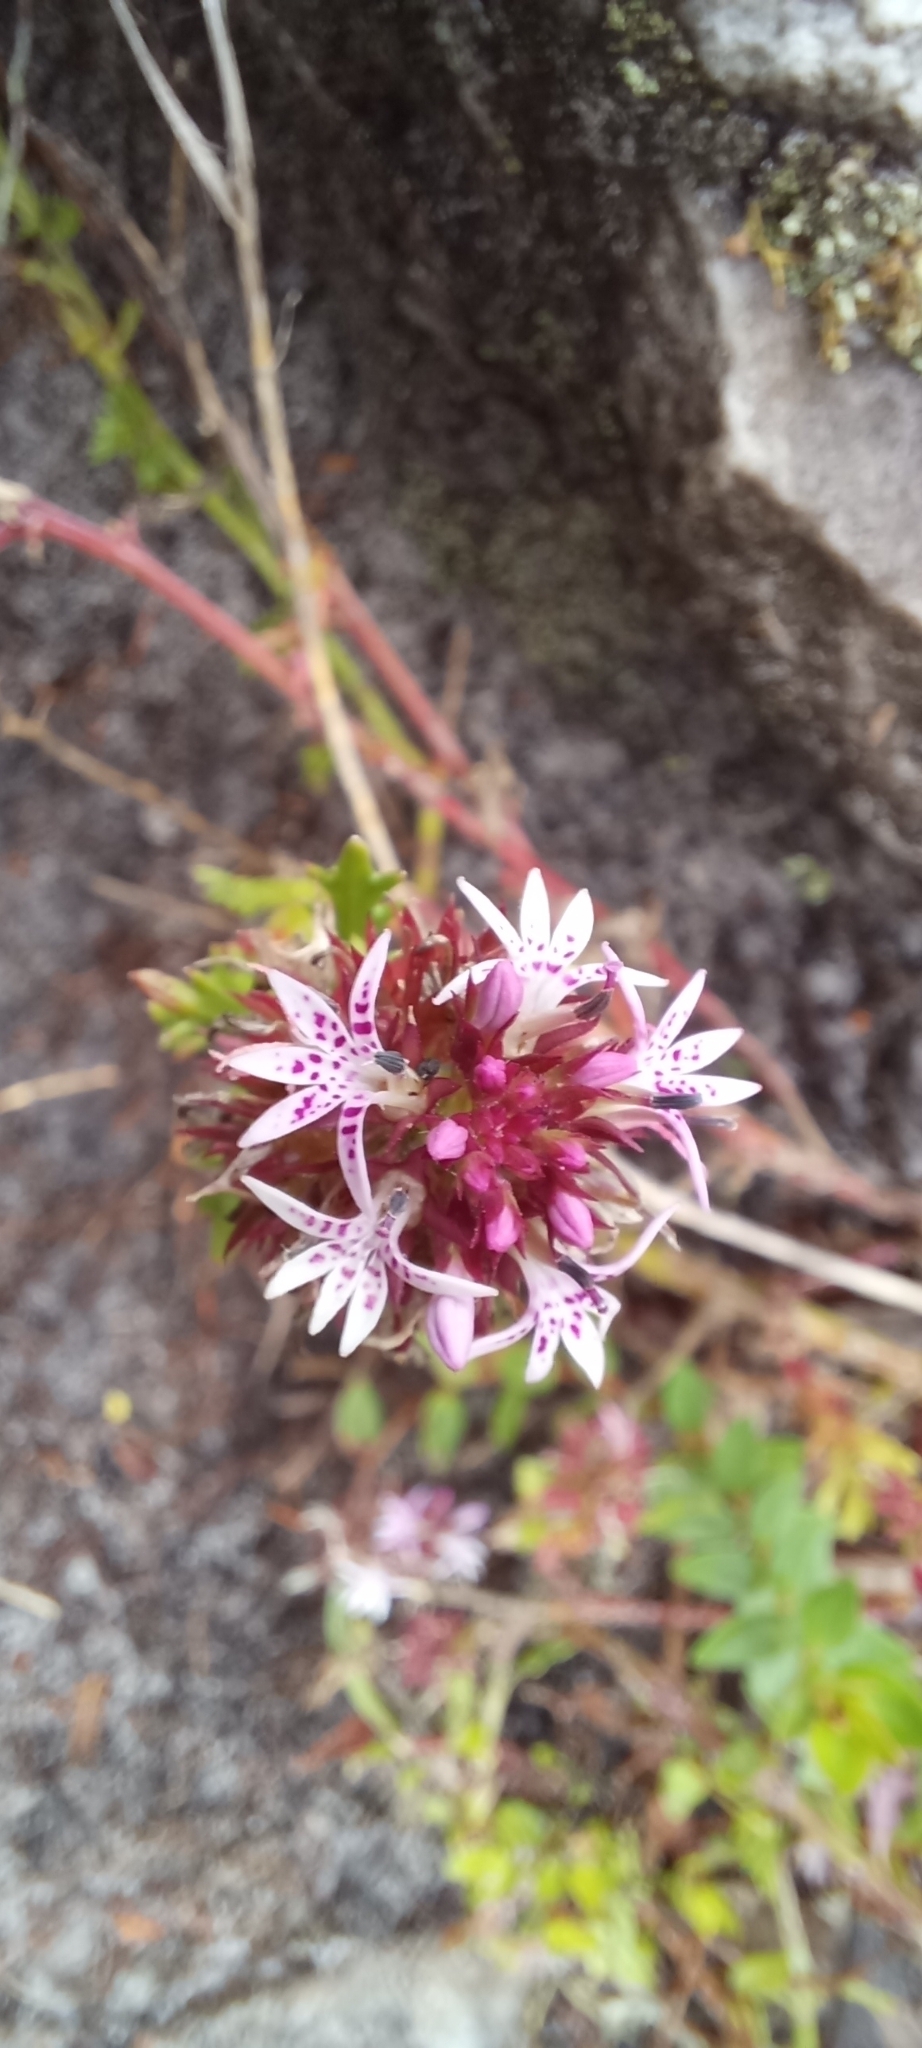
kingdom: Plantae
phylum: Tracheophyta
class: Magnoliopsida
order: Asterales
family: Campanulaceae
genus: Lobelia
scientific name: Lobelia jasionoides
